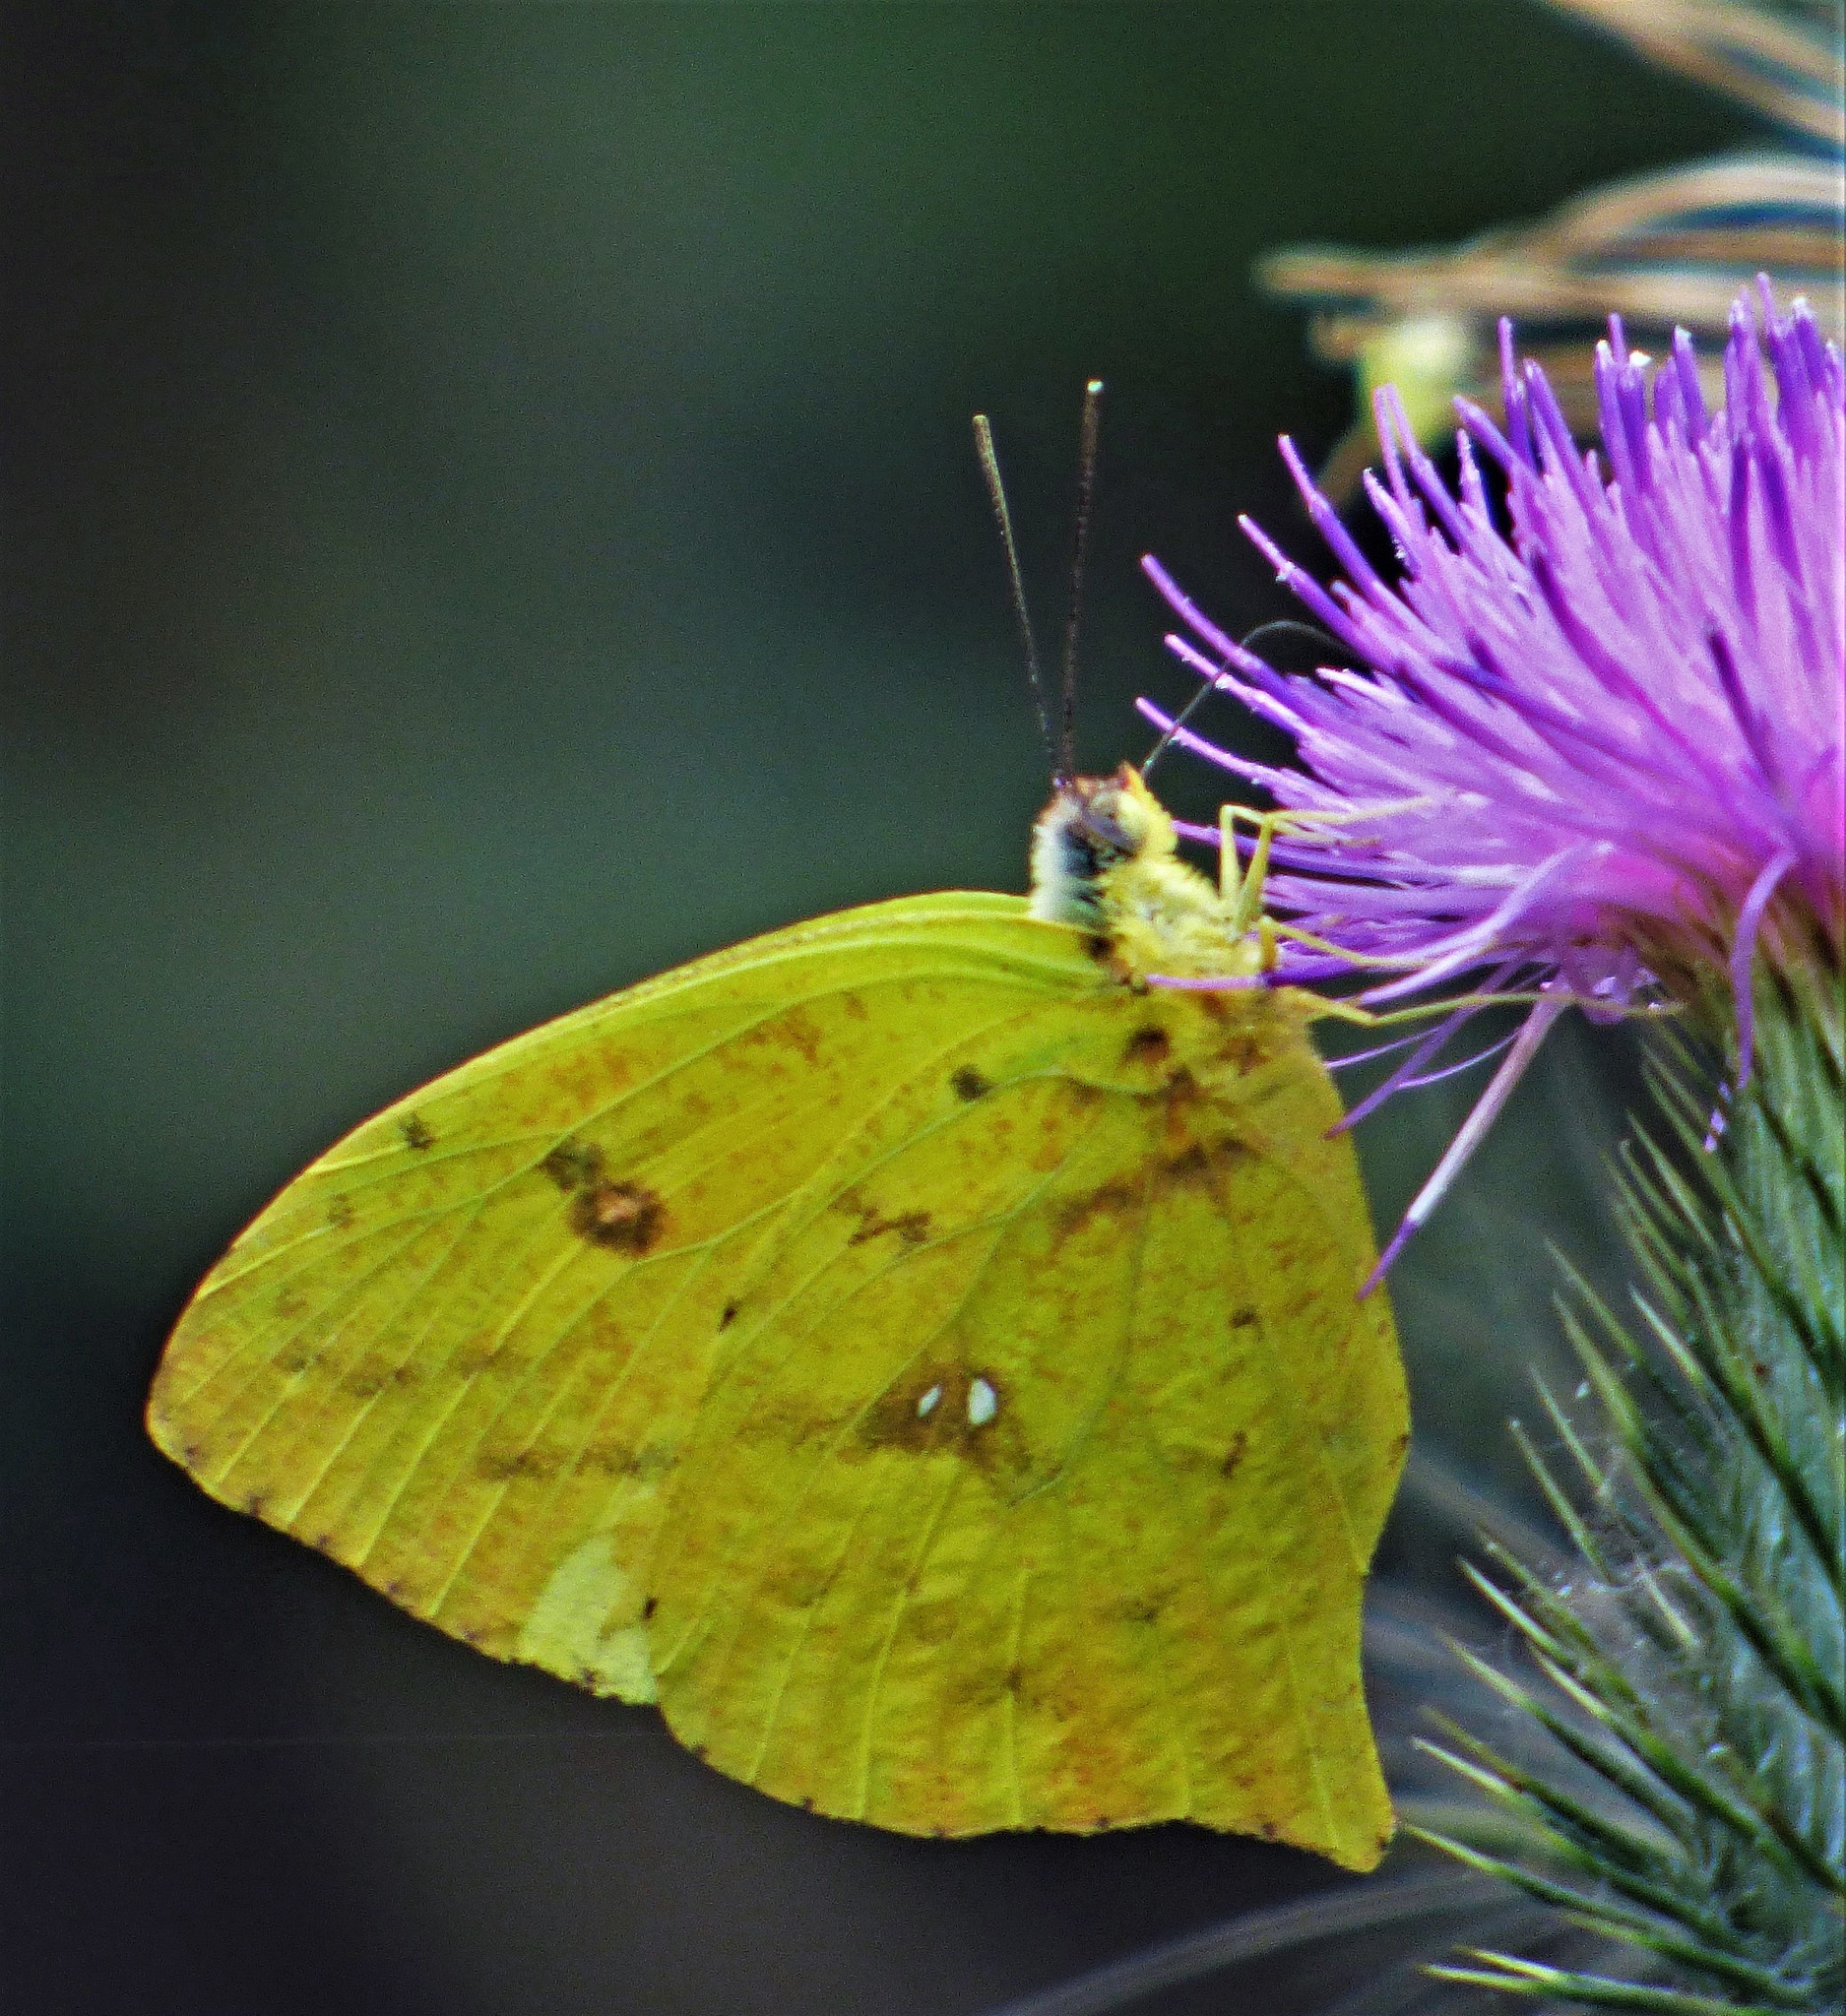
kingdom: Animalia
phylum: Arthropoda
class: Insecta
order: Lepidoptera
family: Pieridae
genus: Phoebis
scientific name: Phoebis neocypris
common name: Tailed sulphur
